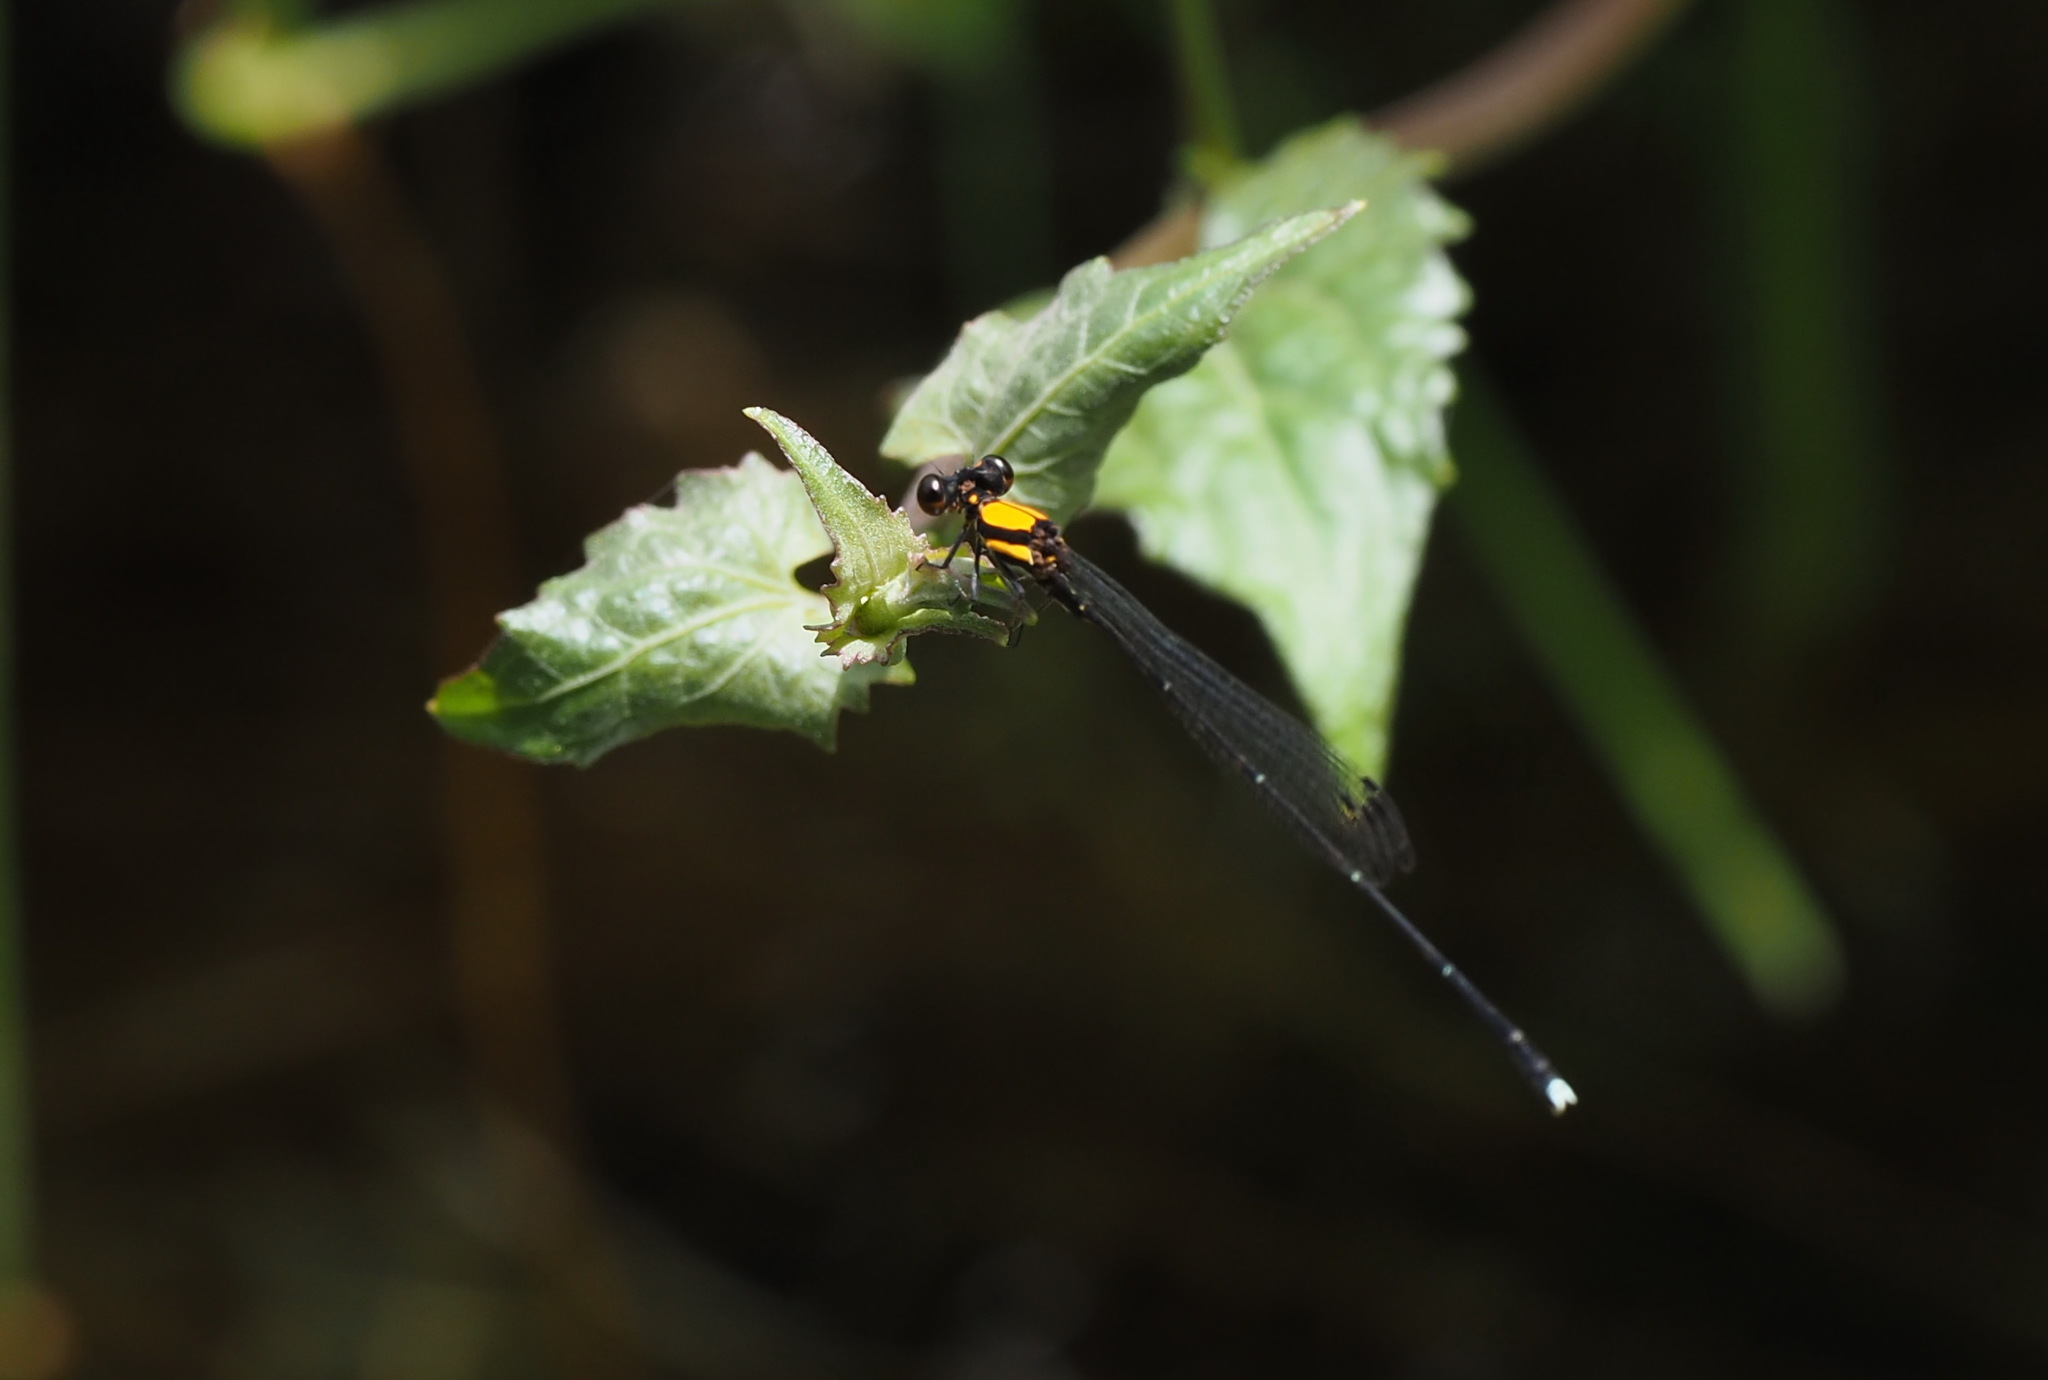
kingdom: Animalia
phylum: Arthropoda
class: Insecta
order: Odonata
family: Platycnemididae
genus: Prodasineura
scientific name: Prodasineura croconota
